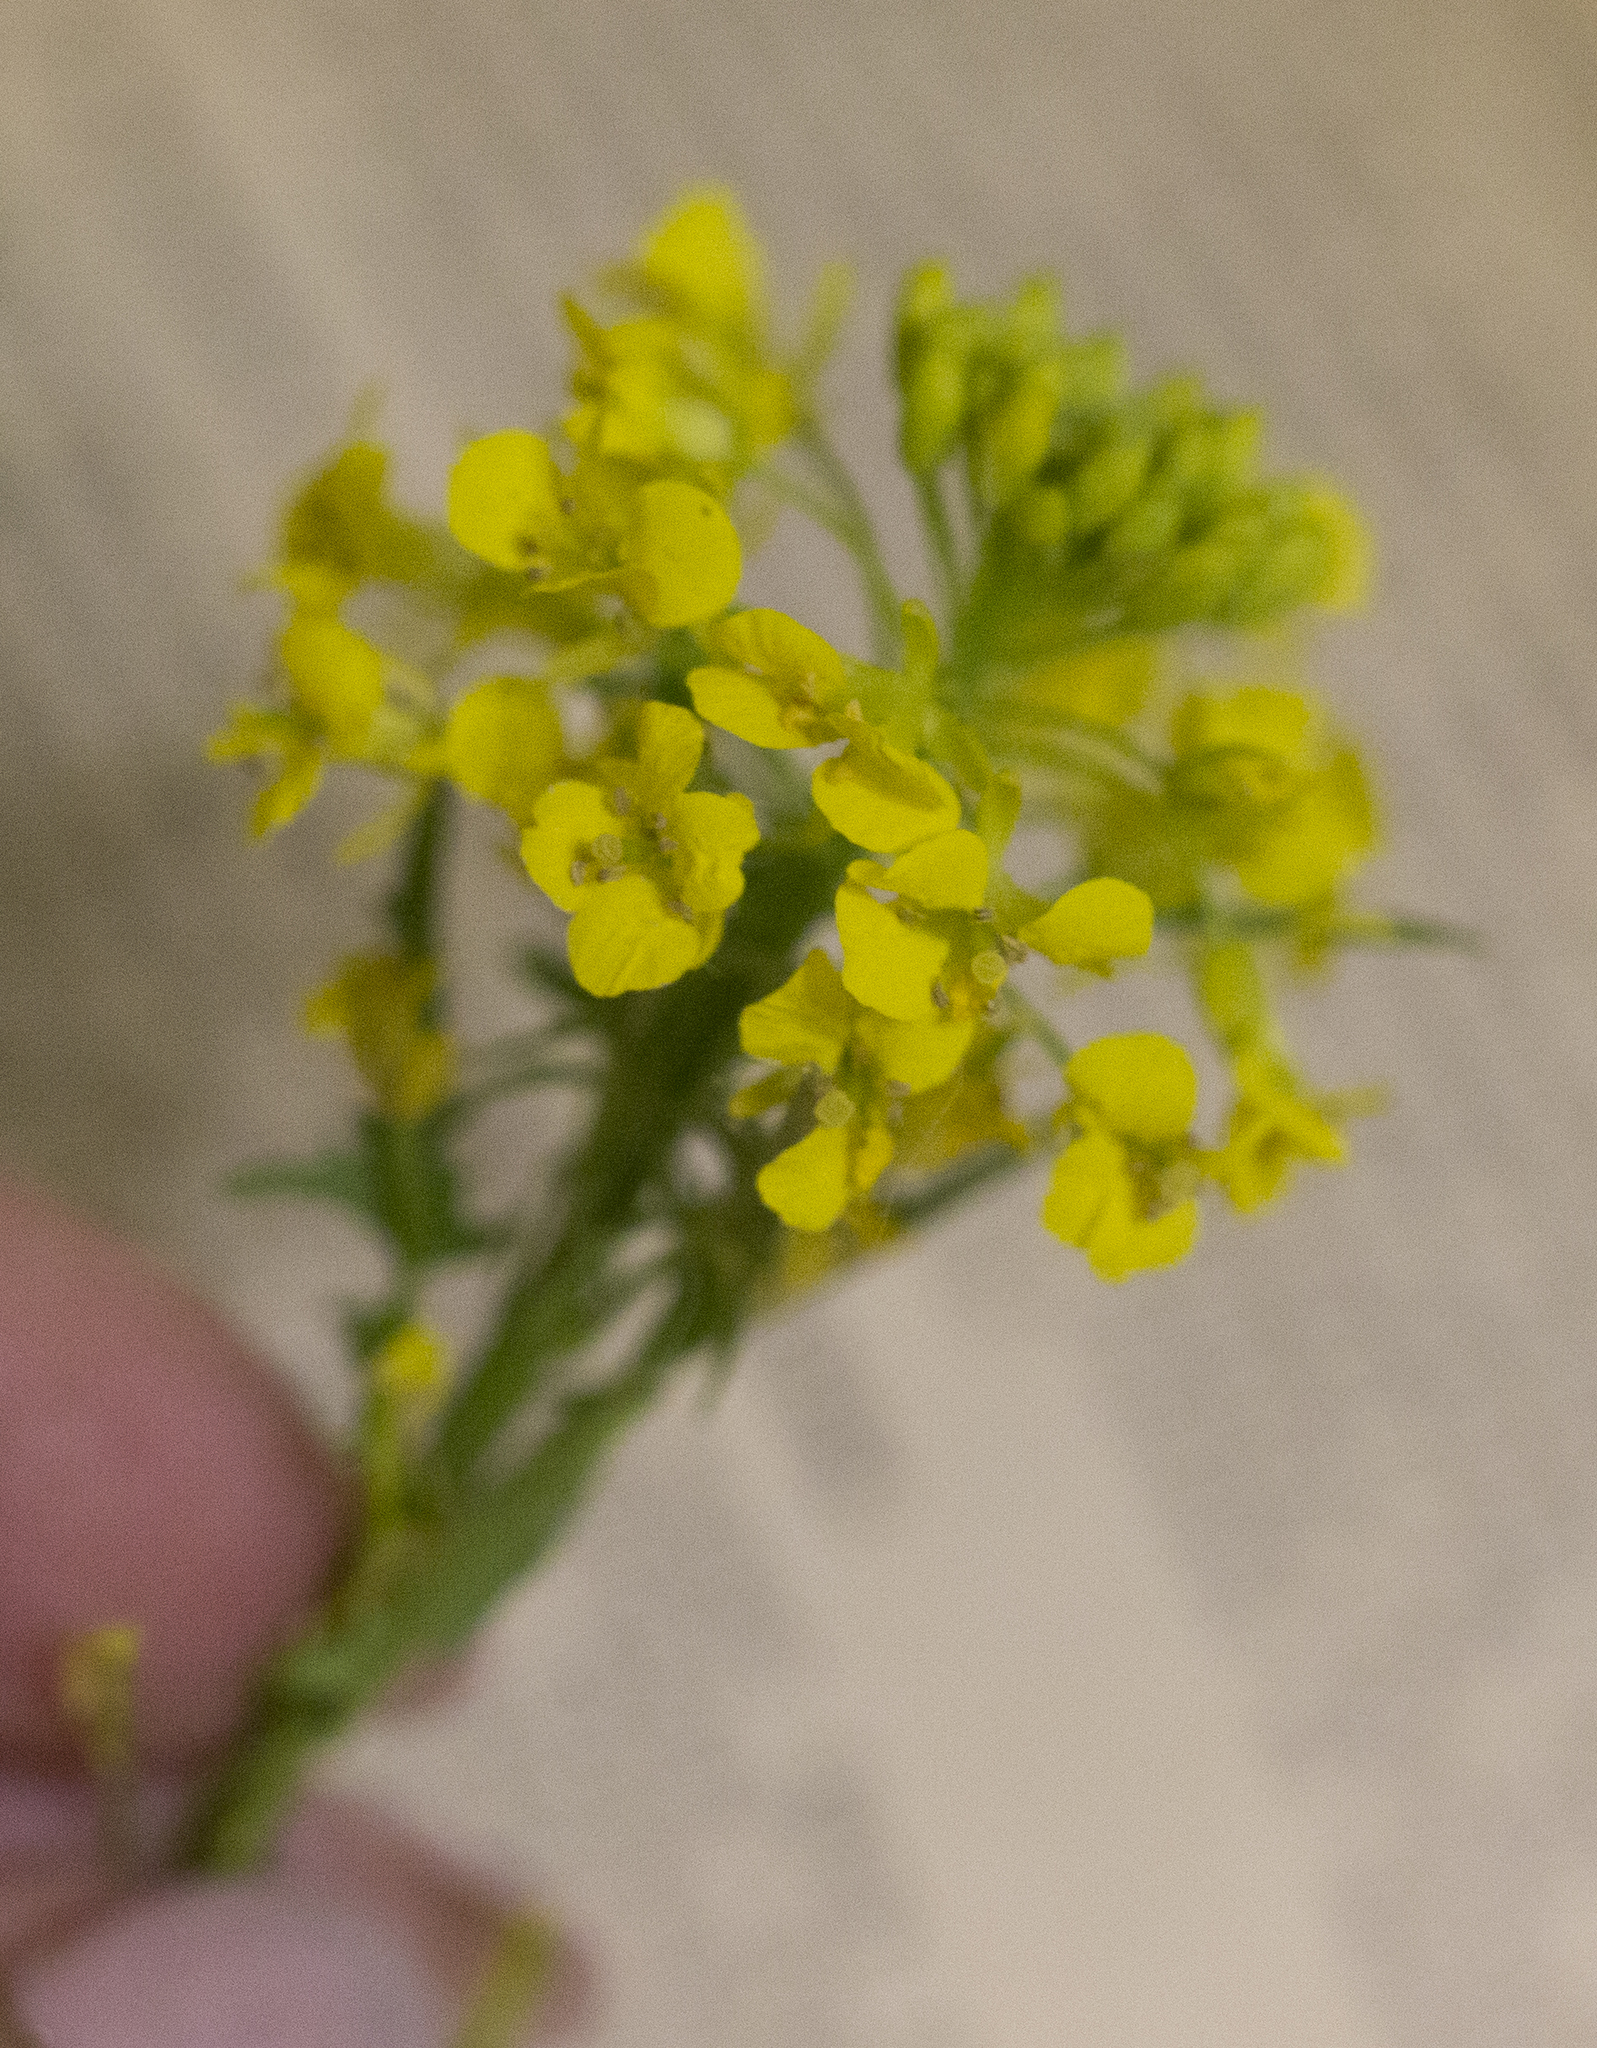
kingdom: Plantae
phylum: Tracheophyta
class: Magnoliopsida
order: Brassicales
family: Brassicaceae
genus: Sisymbrium
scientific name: Sisymbrium loeselii
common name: False london-rocket
